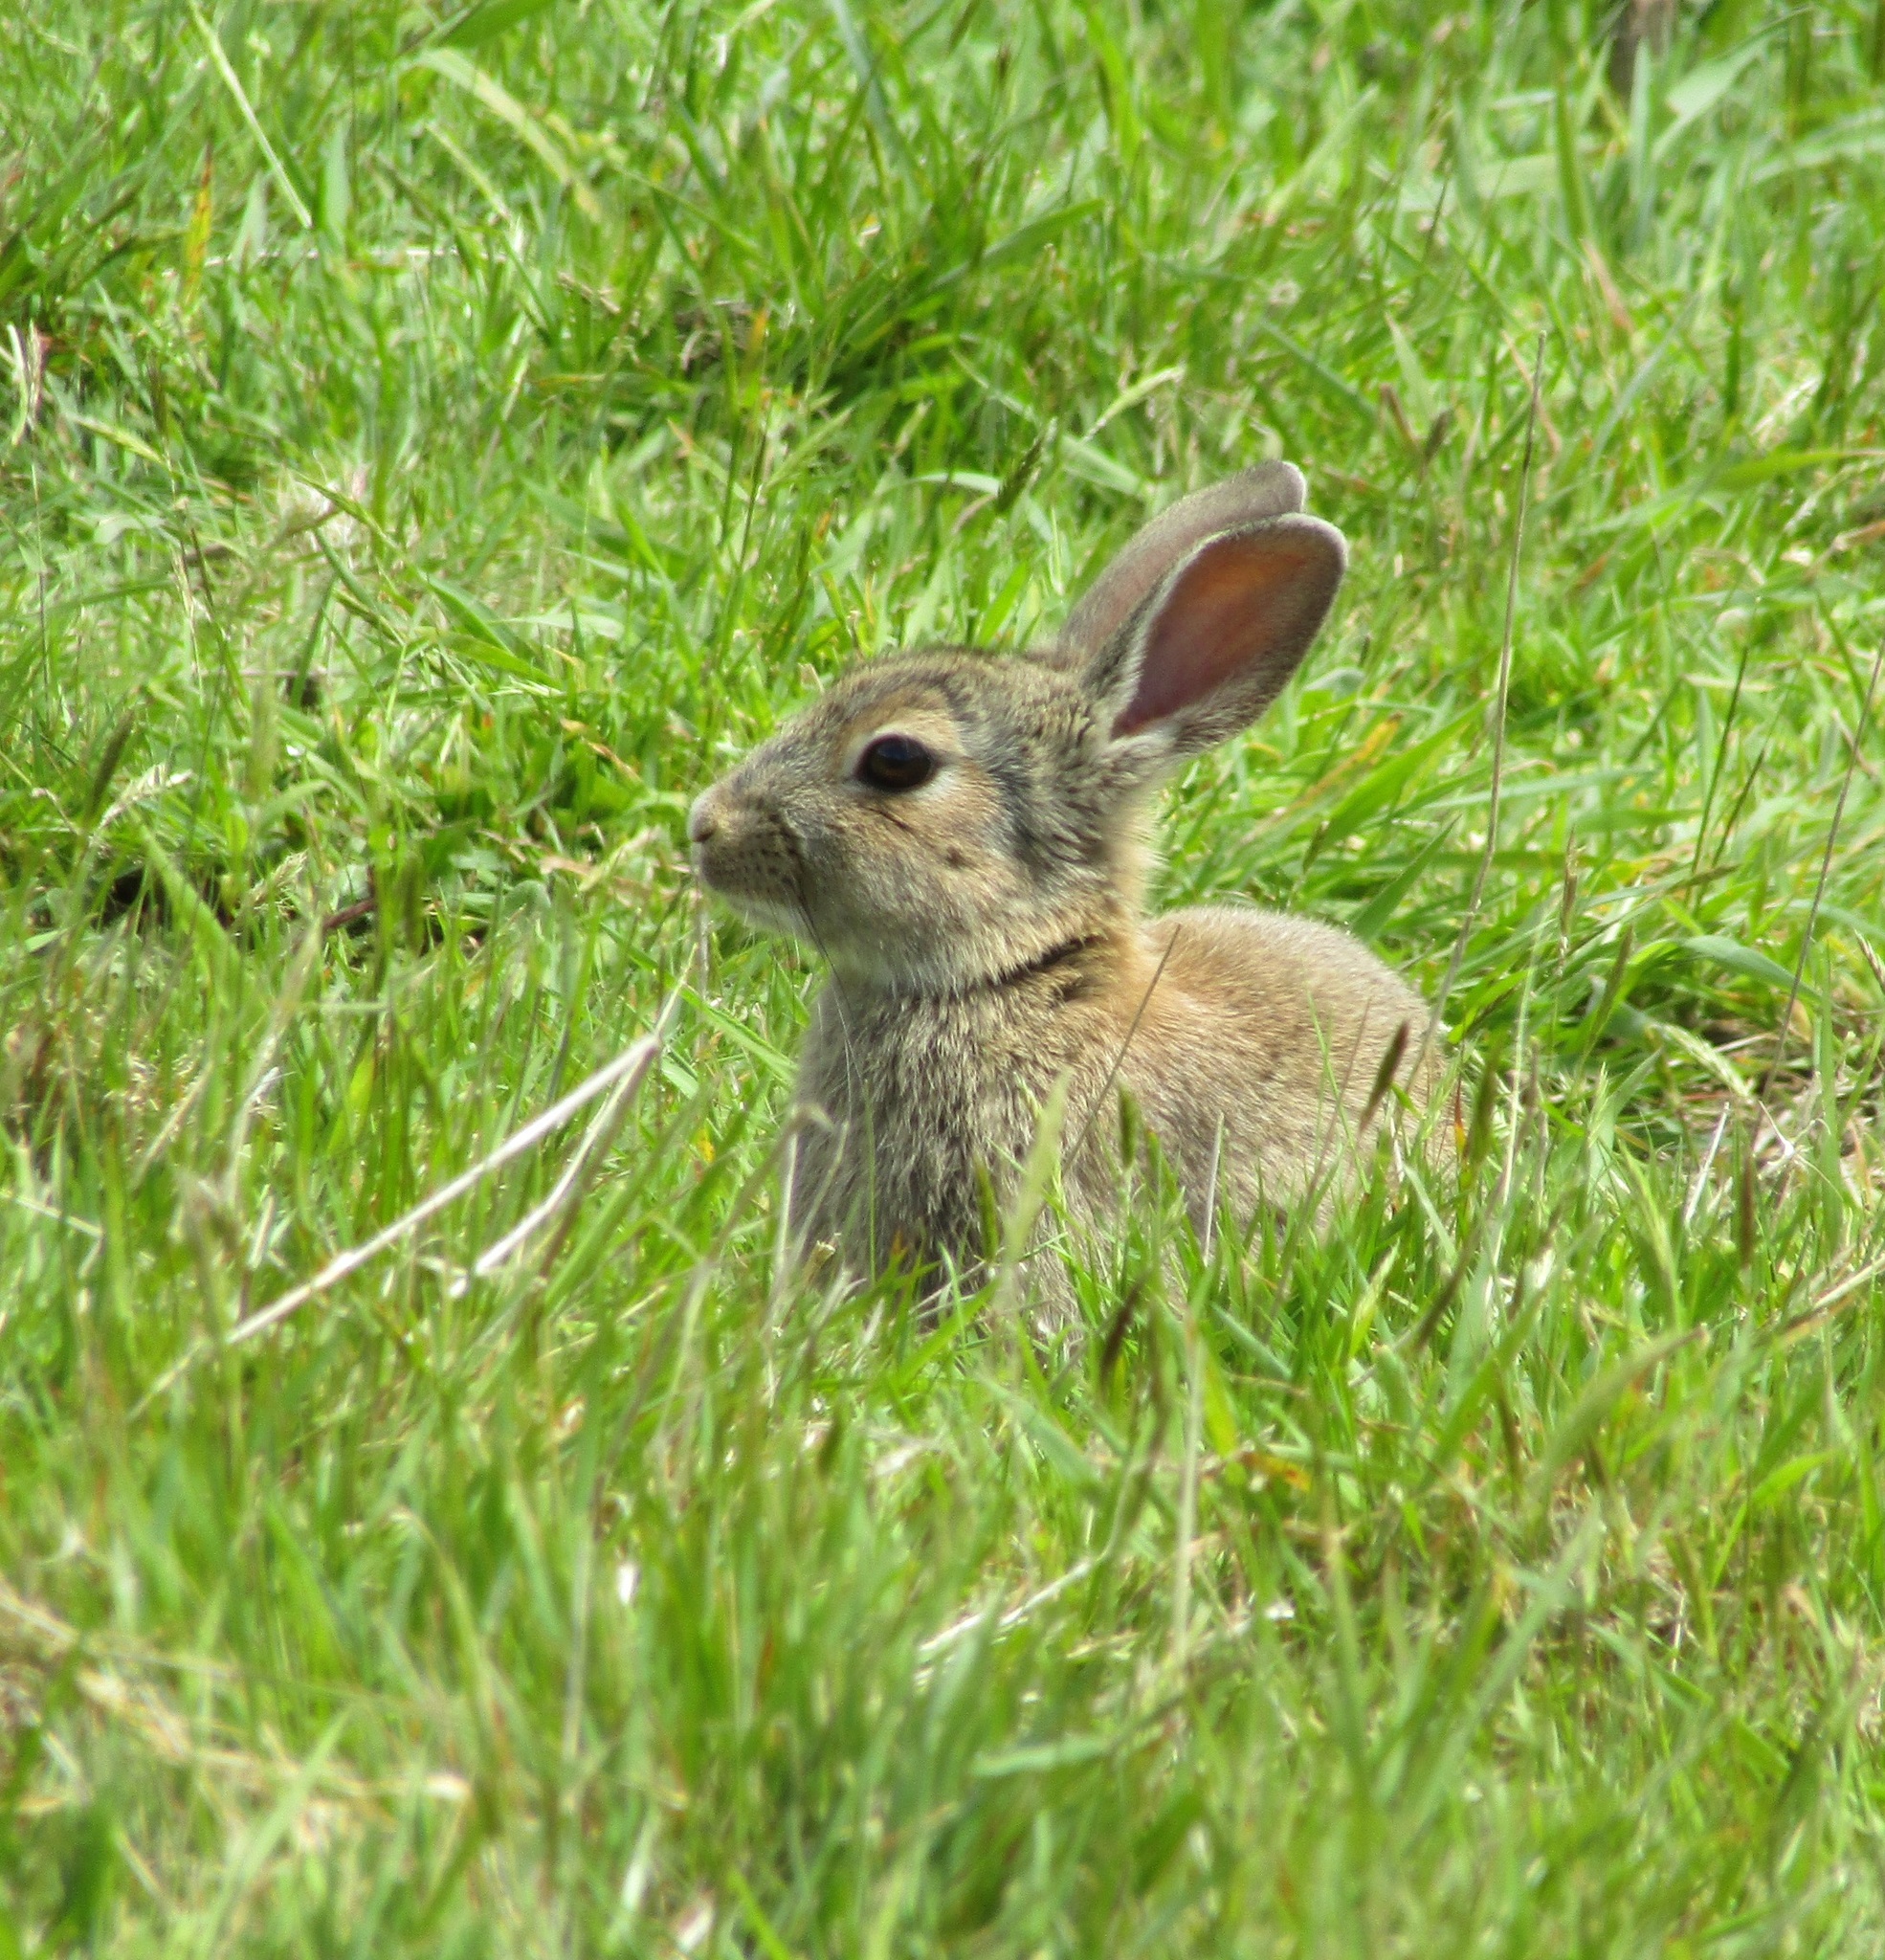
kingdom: Animalia
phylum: Chordata
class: Mammalia
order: Lagomorpha
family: Leporidae
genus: Oryctolagus
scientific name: Oryctolagus cuniculus
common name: European rabbit
